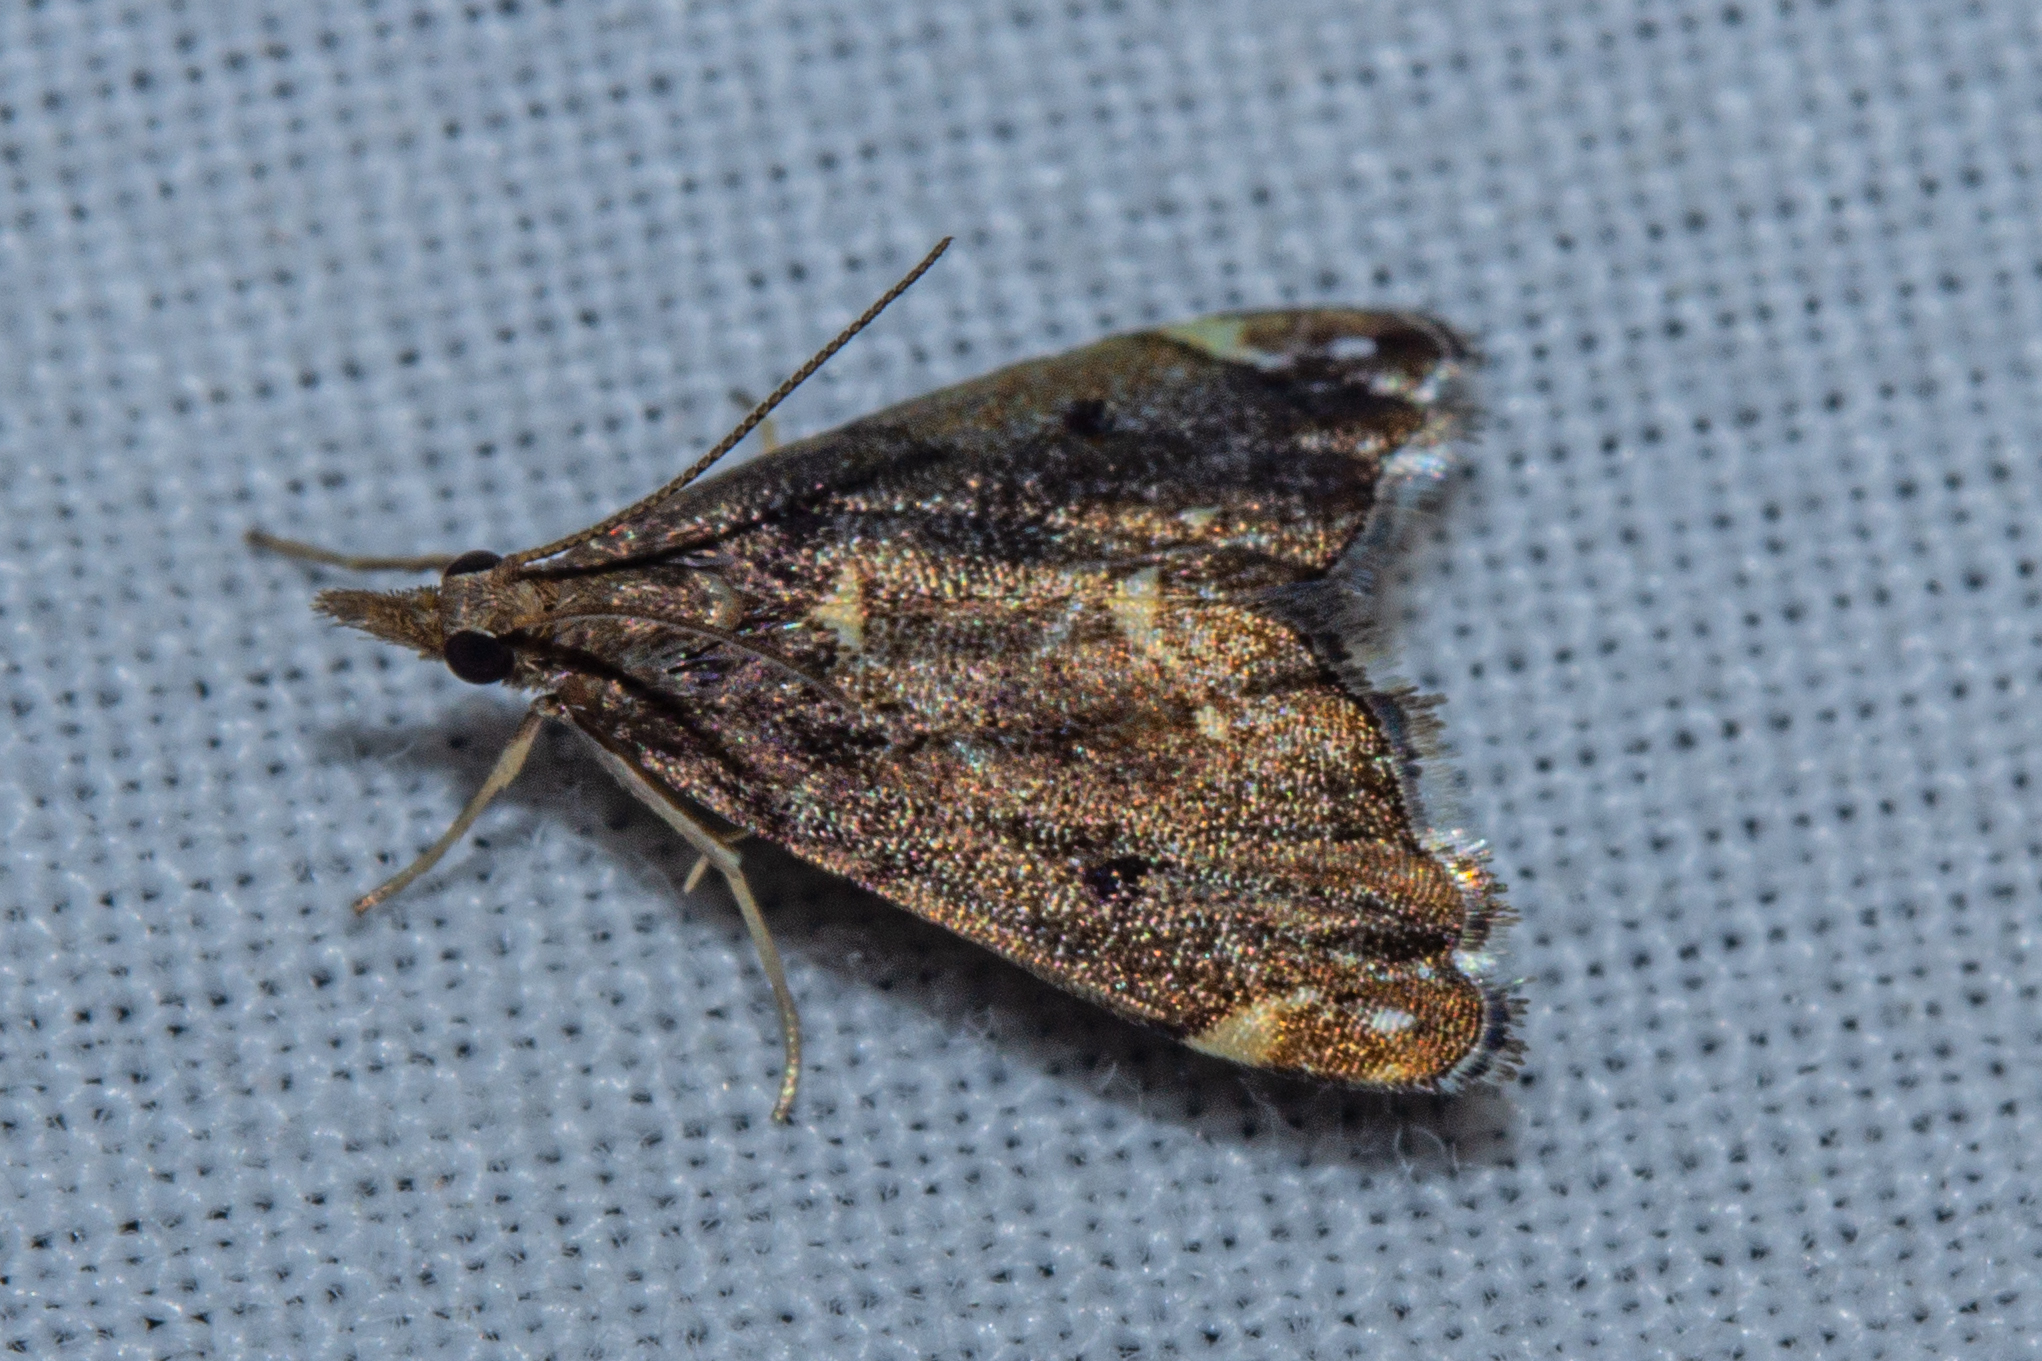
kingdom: Animalia
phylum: Arthropoda
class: Insecta
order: Lepidoptera
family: Crambidae
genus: Glaucocharis
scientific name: Glaucocharis pyrsophanes
